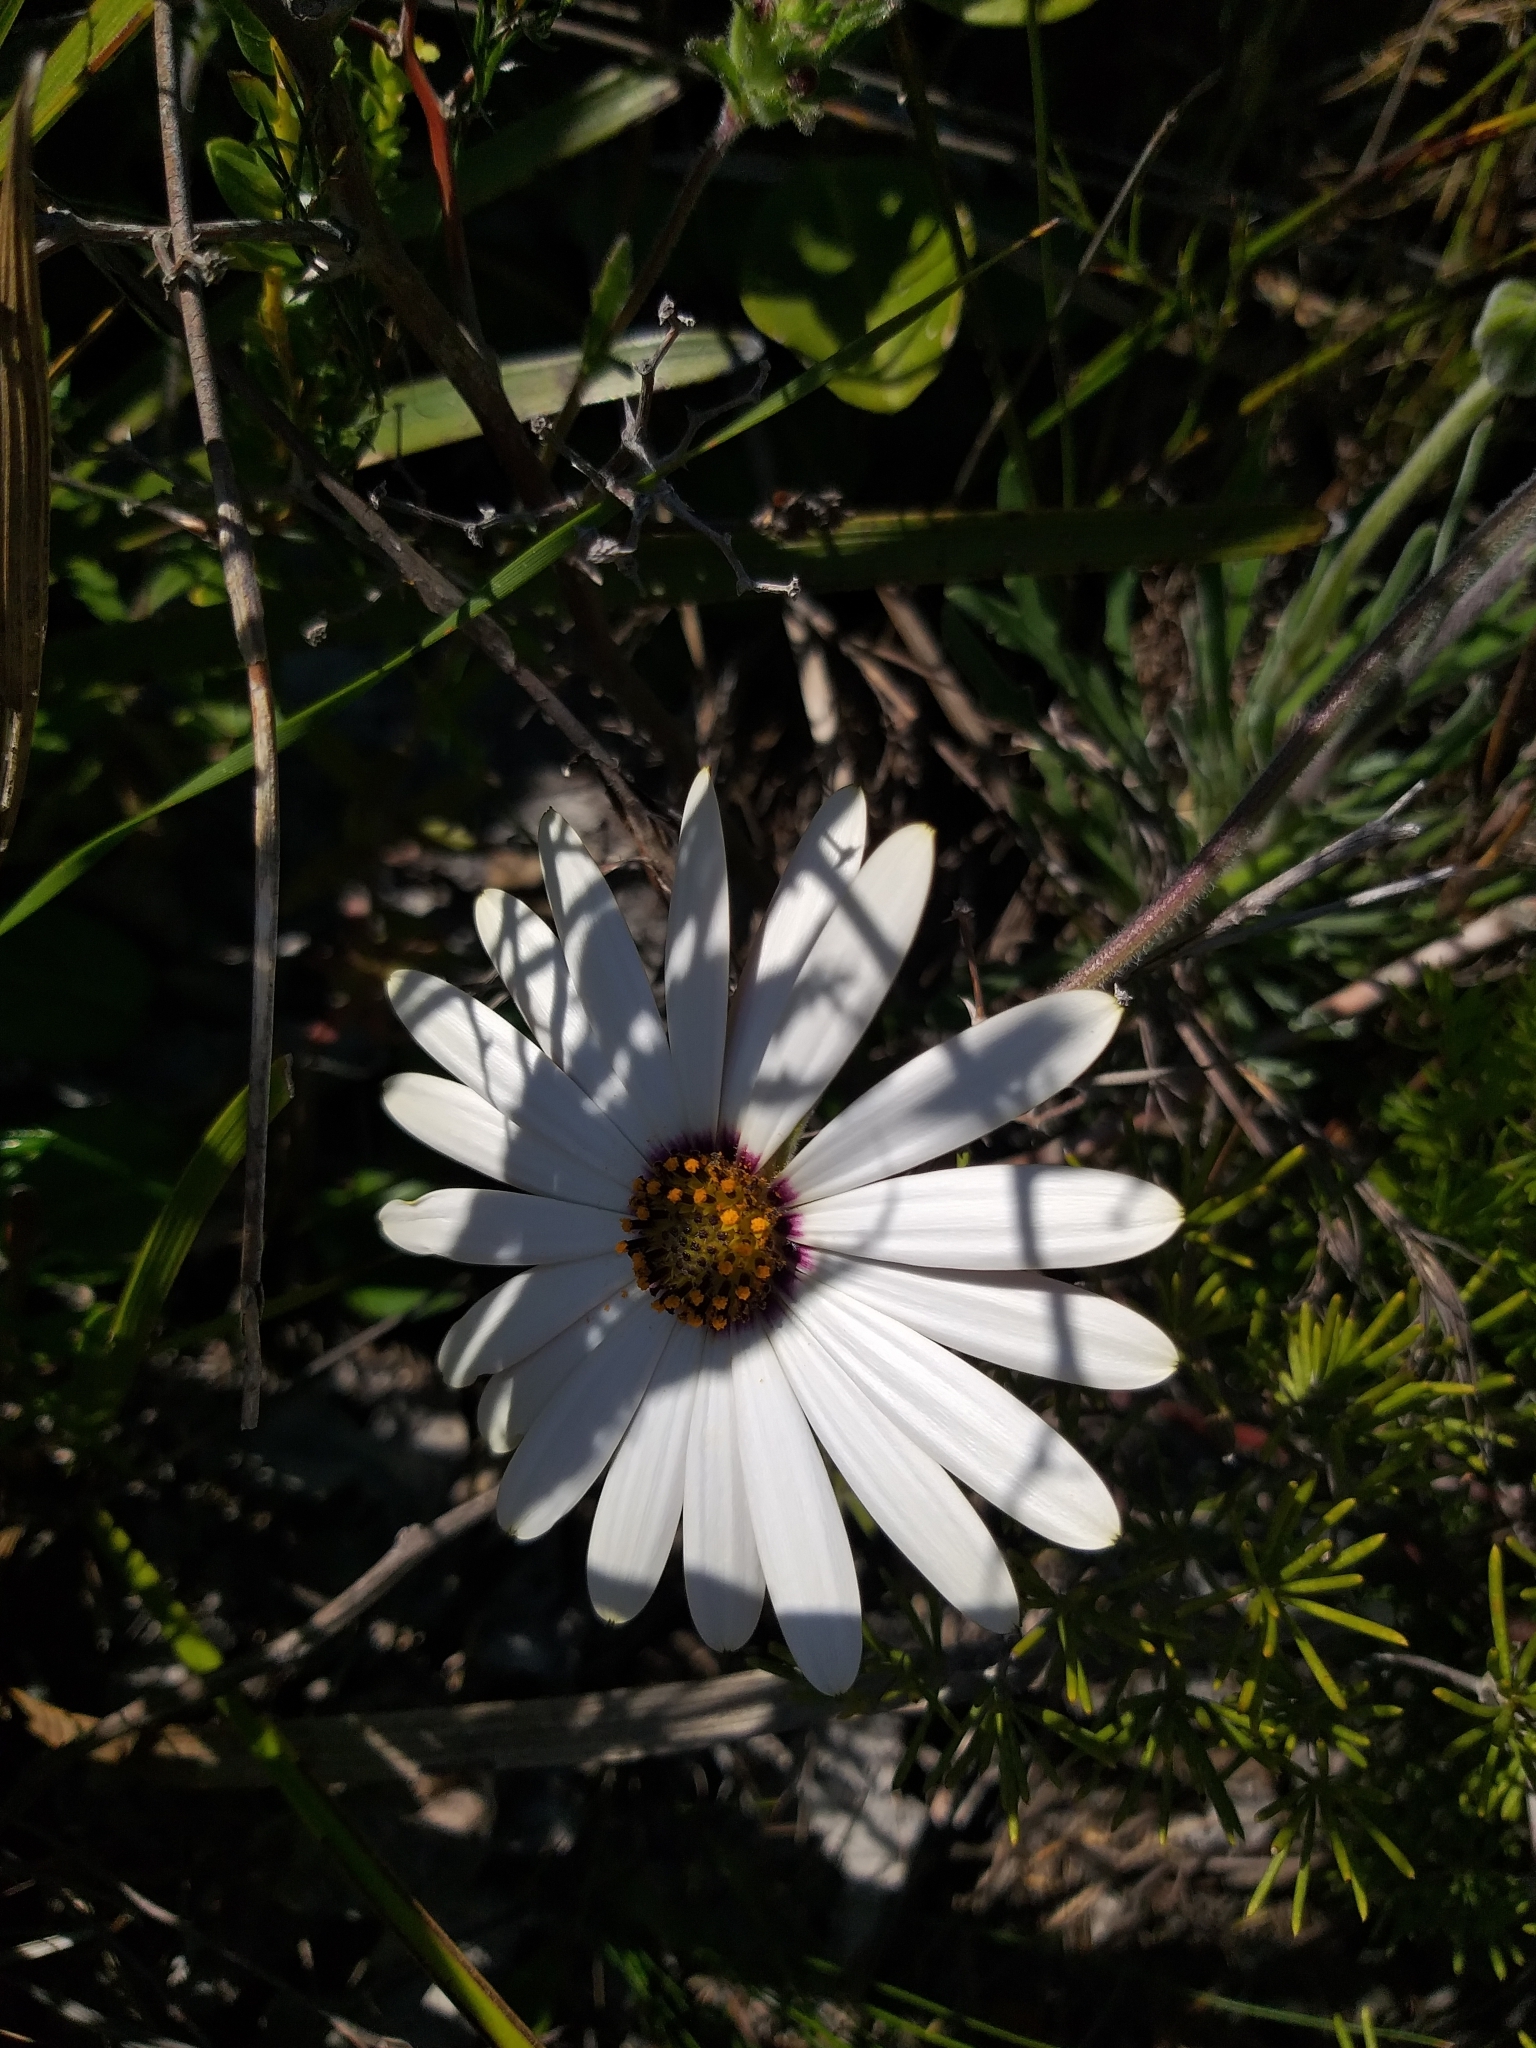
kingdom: Plantae
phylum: Tracheophyta
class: Magnoliopsida
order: Asterales
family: Asteraceae
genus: Dimorphotheca
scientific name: Dimorphotheca nudicaulis
